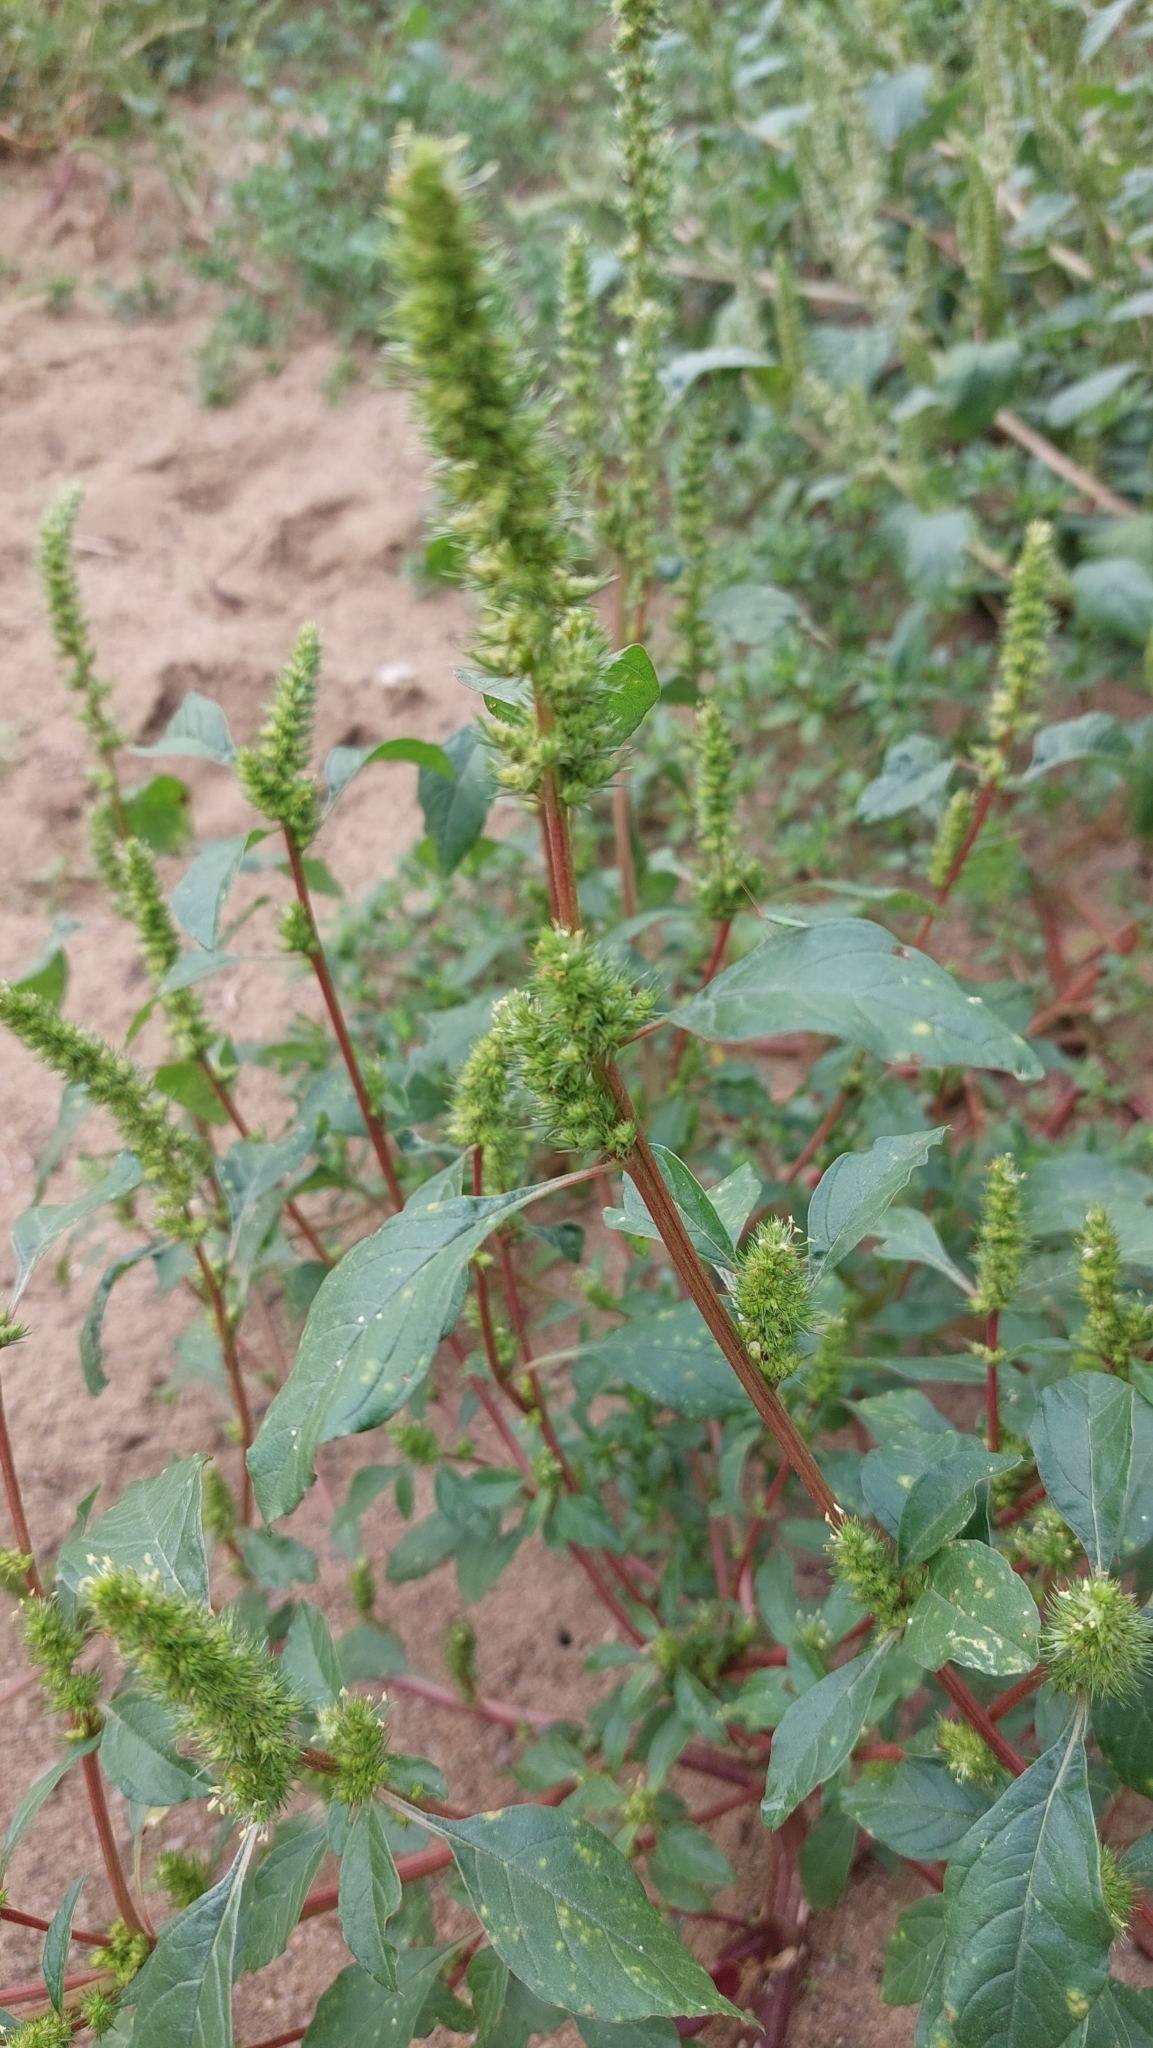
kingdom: Plantae
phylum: Tracheophyta
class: Magnoliopsida
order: Caryophyllales
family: Amaranthaceae
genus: Amaranthus
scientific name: Amaranthus hybridus
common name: Green amaranth
